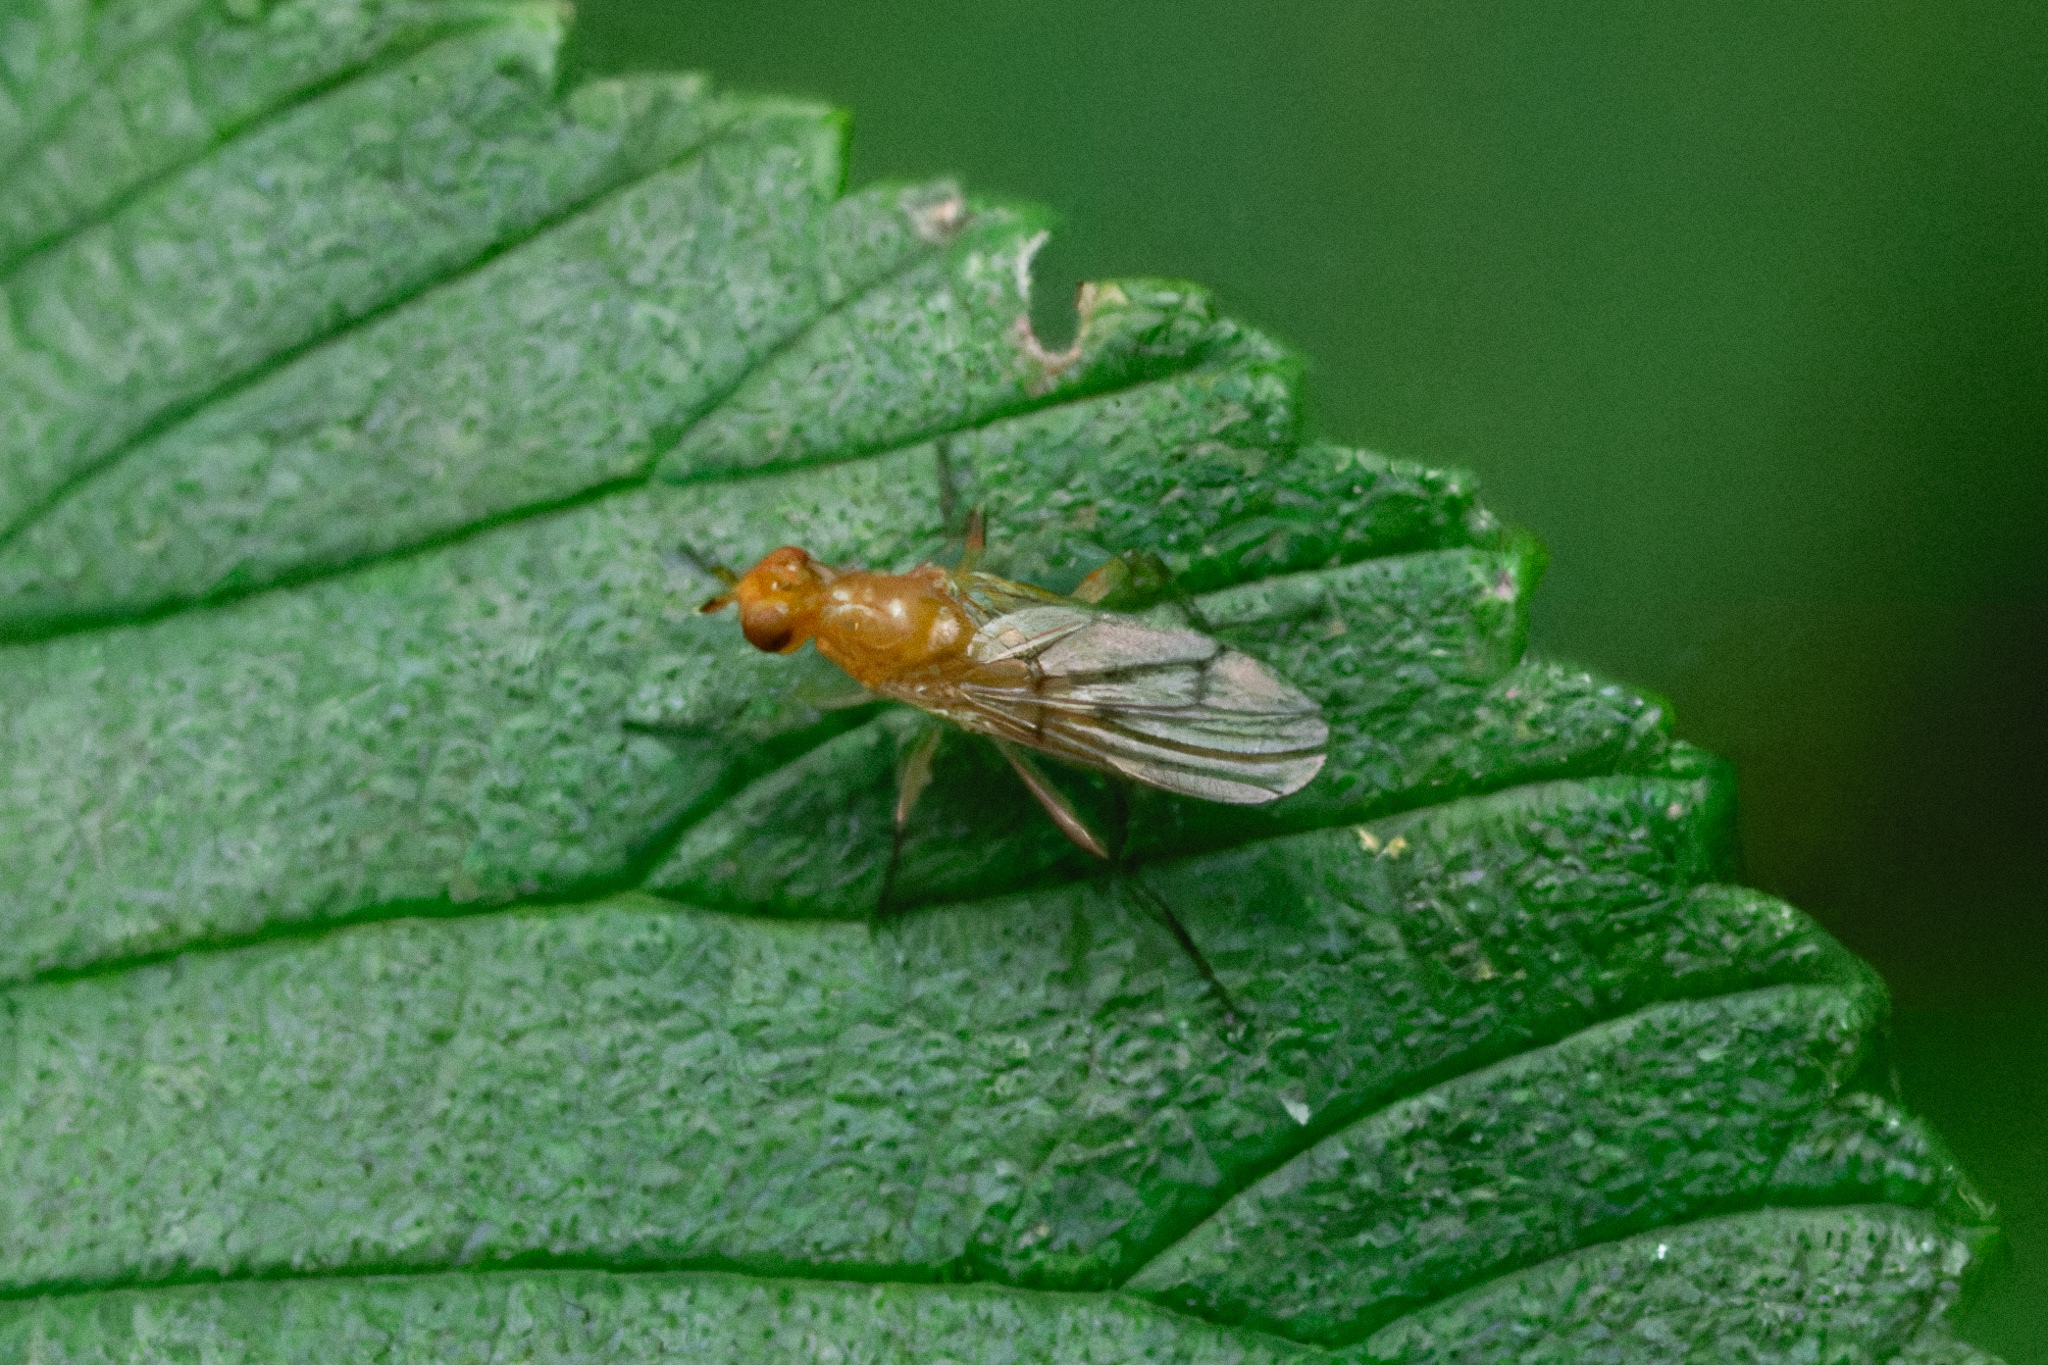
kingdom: Animalia
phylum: Arthropoda
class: Insecta
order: Diptera
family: Dryomyzidae
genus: Dryomyza
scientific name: Dryomyza simplex
